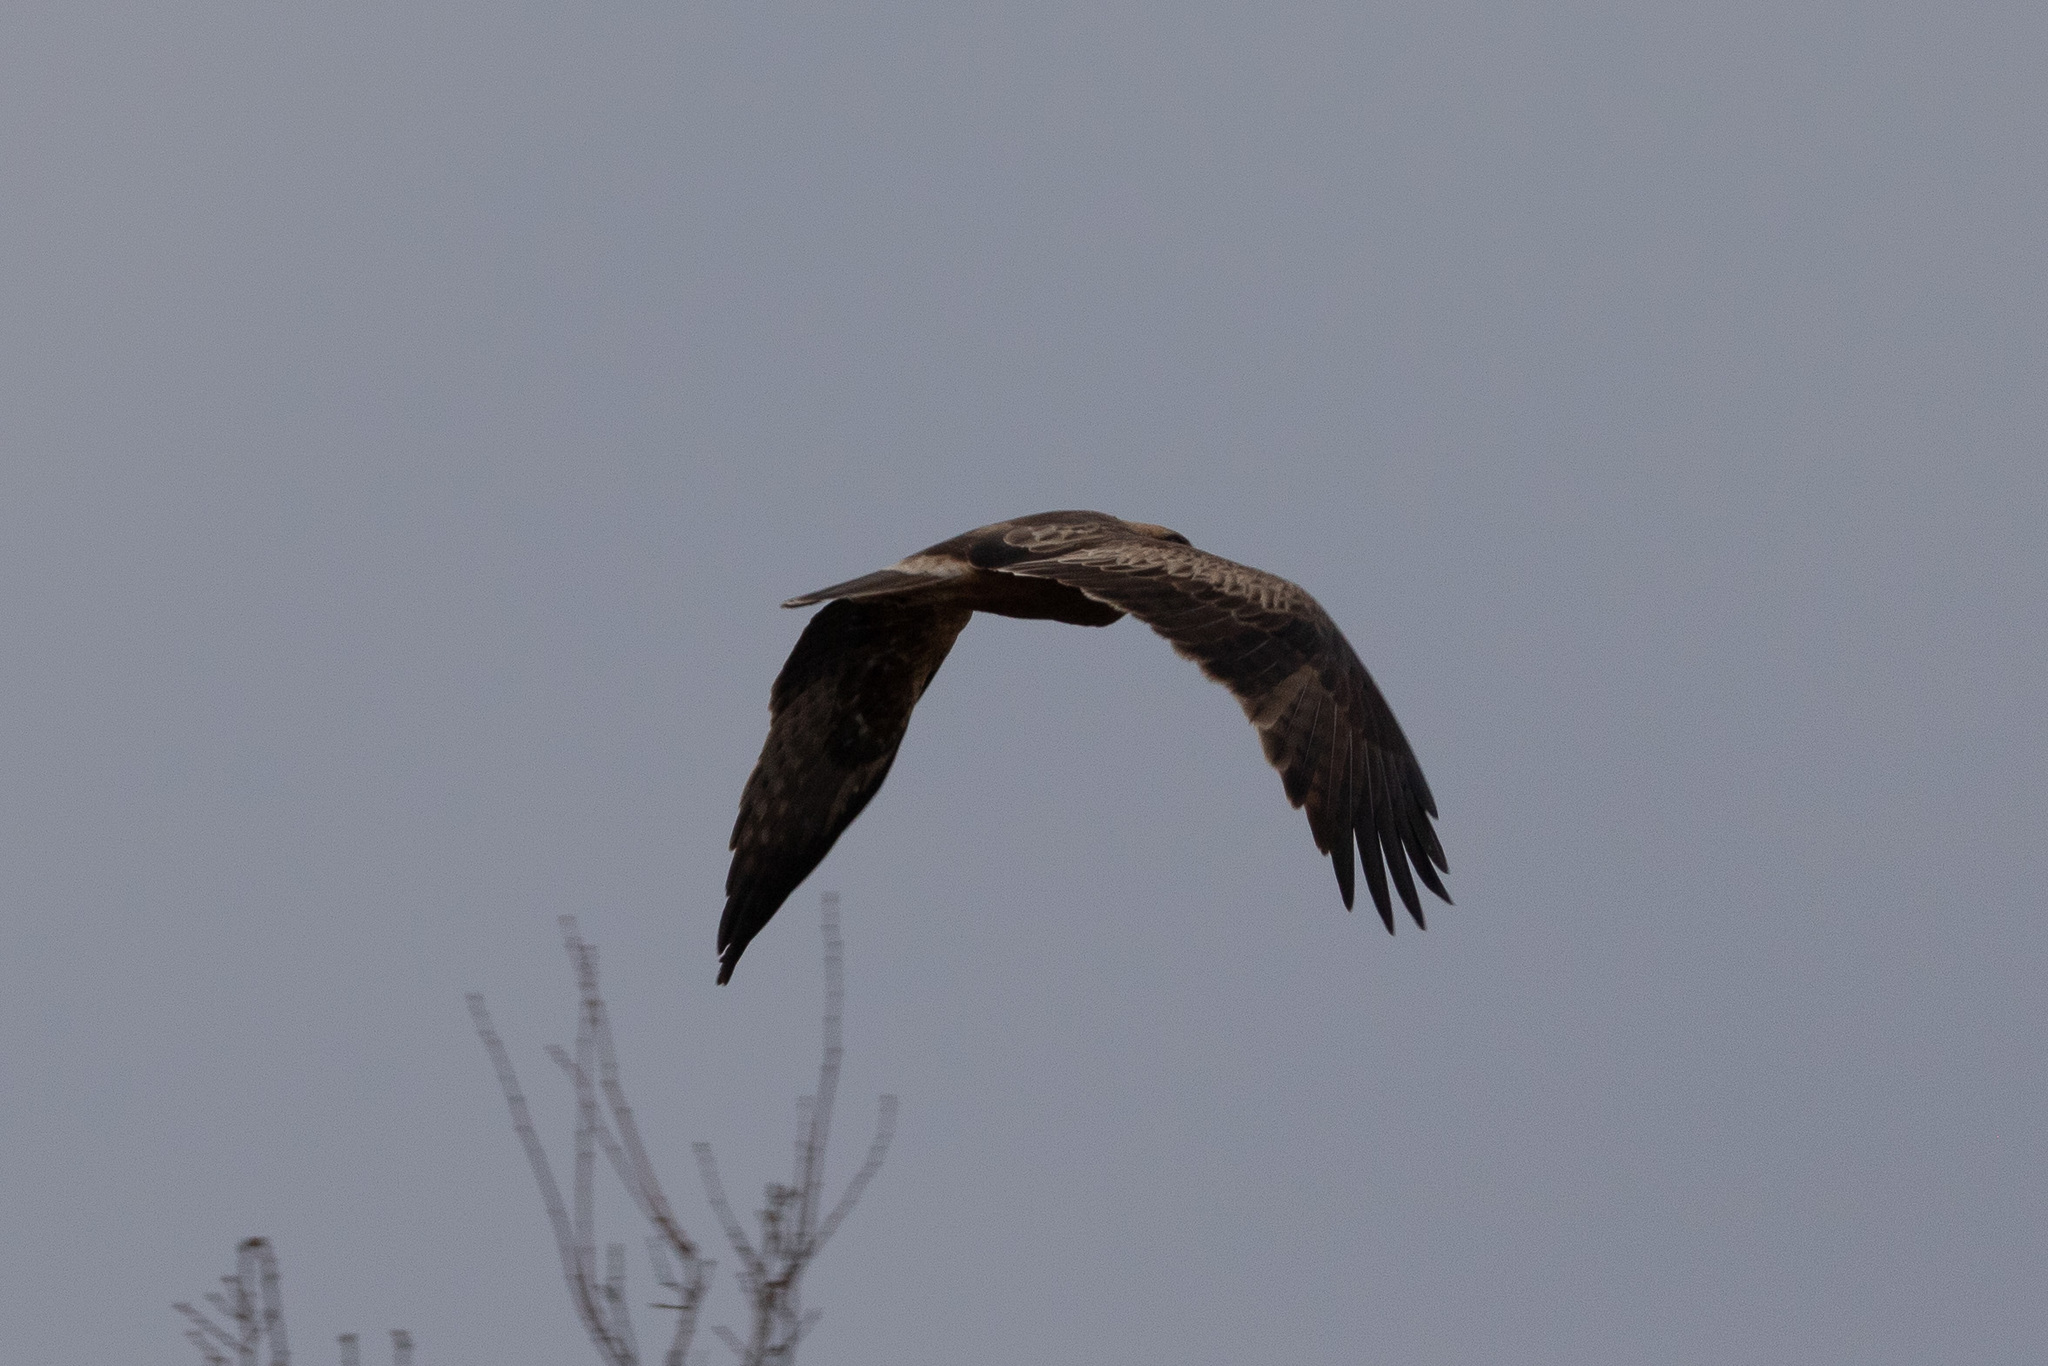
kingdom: Animalia
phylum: Chordata
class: Aves
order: Accipitriformes
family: Accipitridae
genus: Hieraaetus
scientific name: Hieraaetus pennatus
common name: Booted eagle
